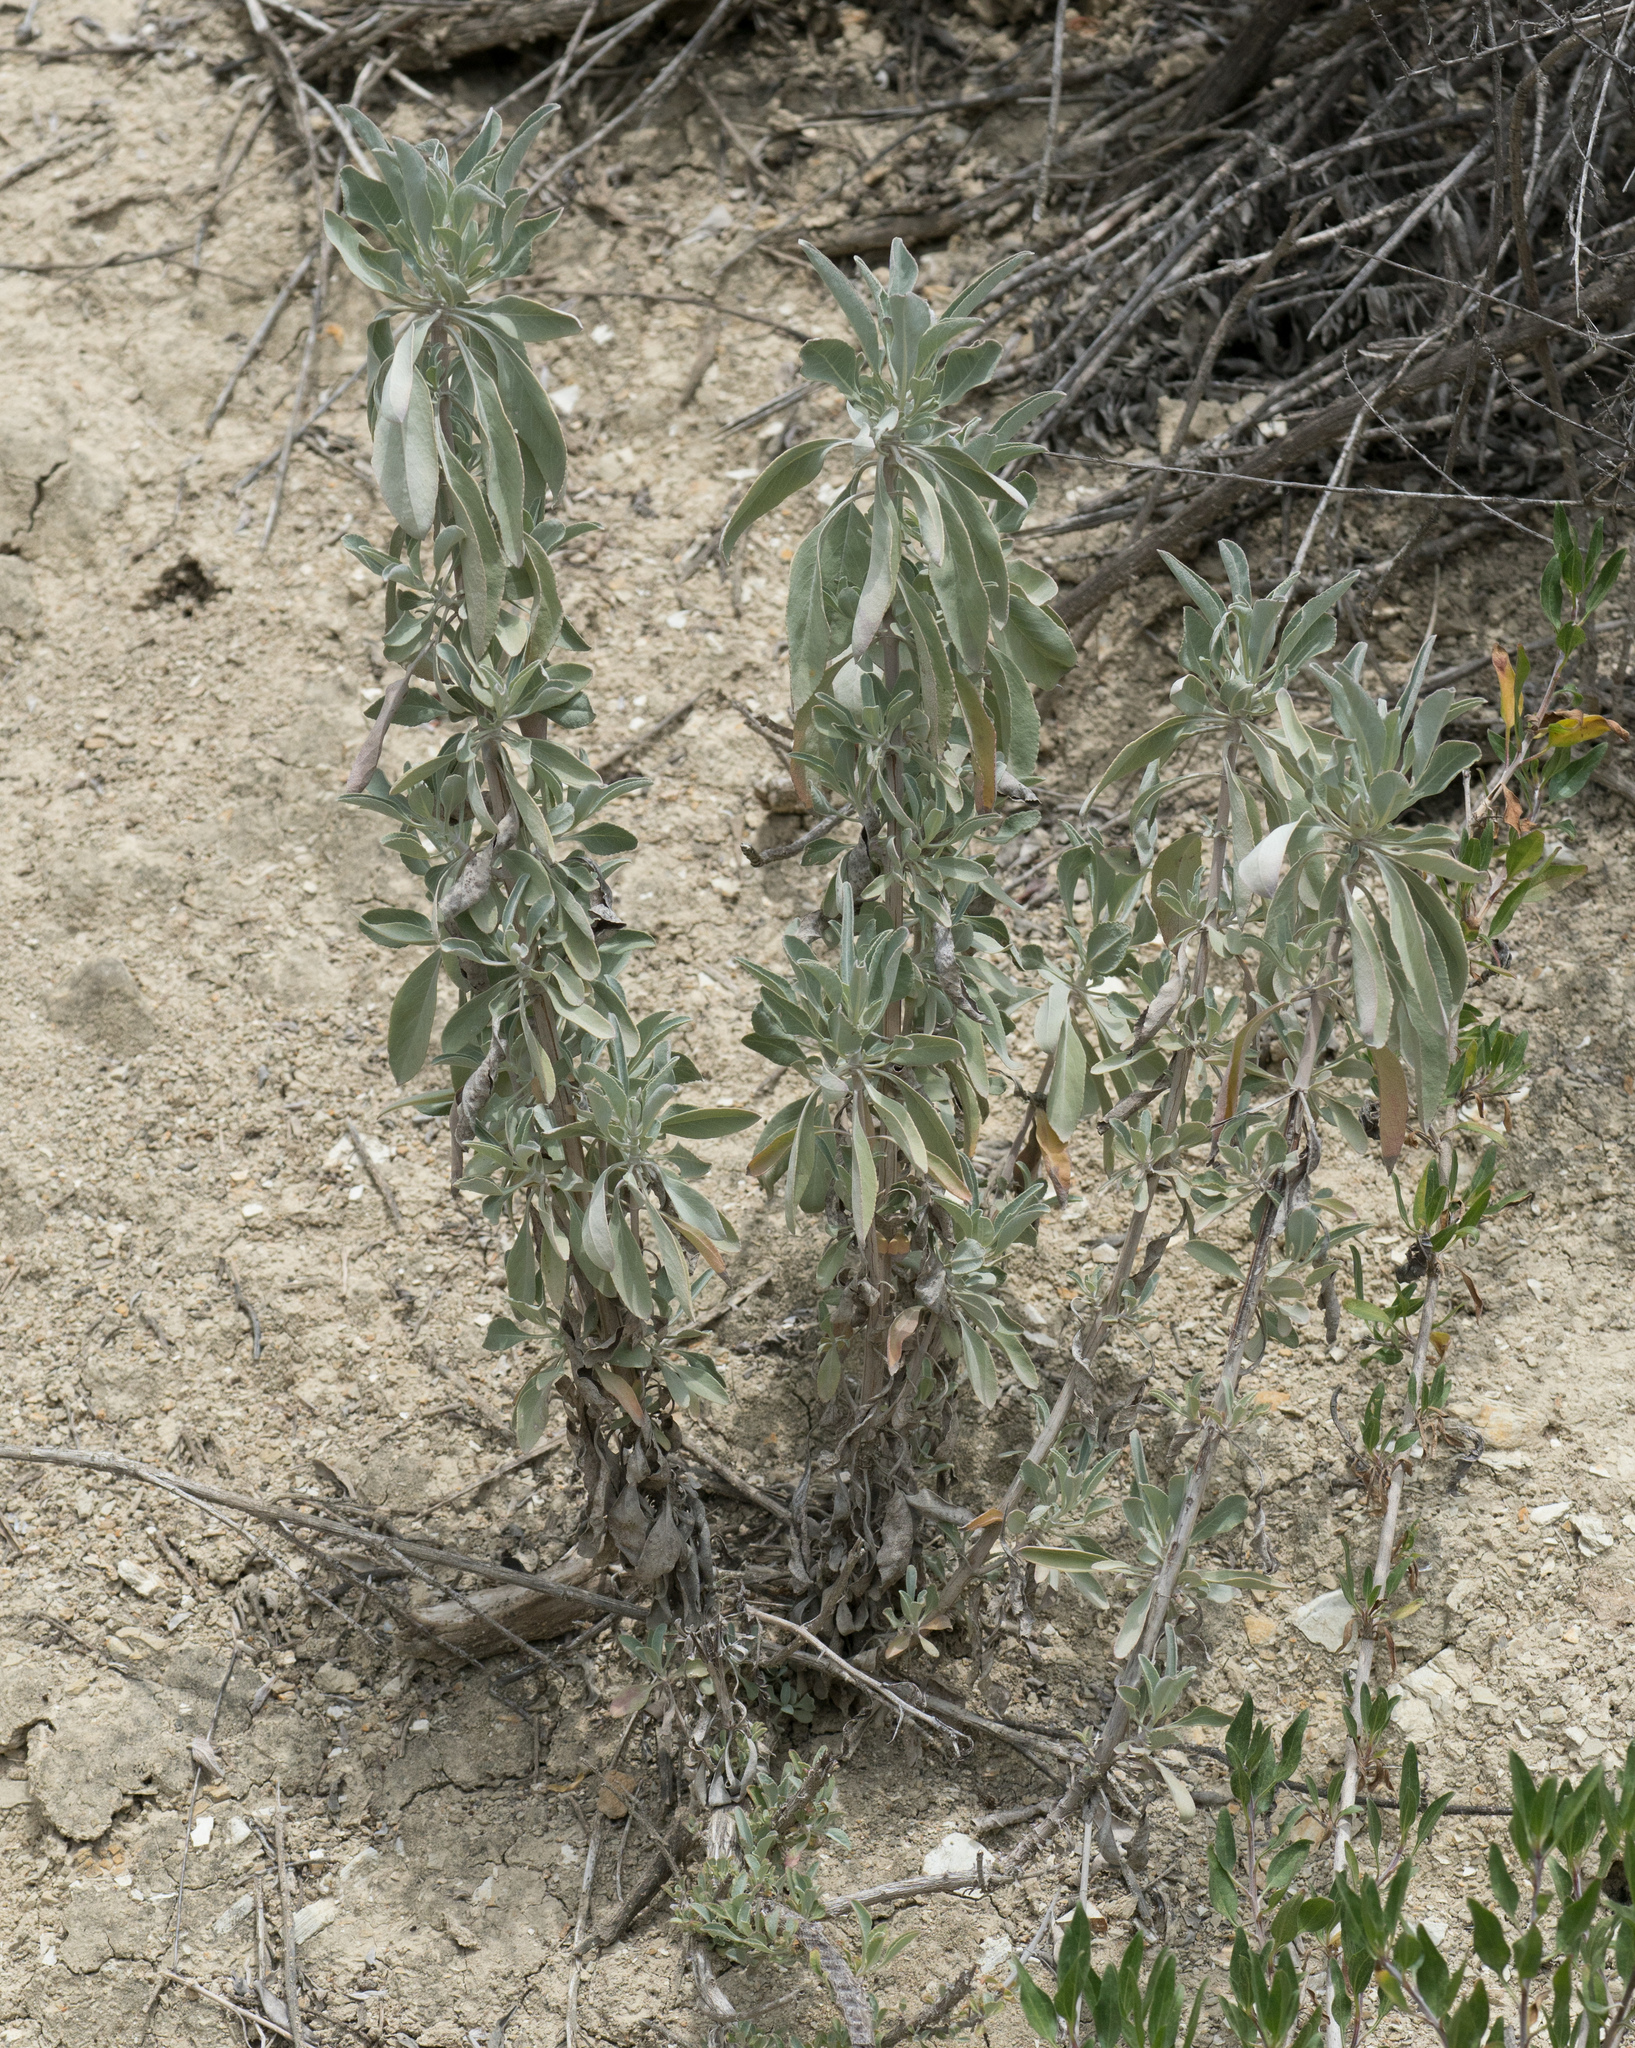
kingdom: Plantae
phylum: Tracheophyta
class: Magnoliopsida
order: Lamiales
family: Lamiaceae
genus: Salvia
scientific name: Salvia apiana
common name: White sage
